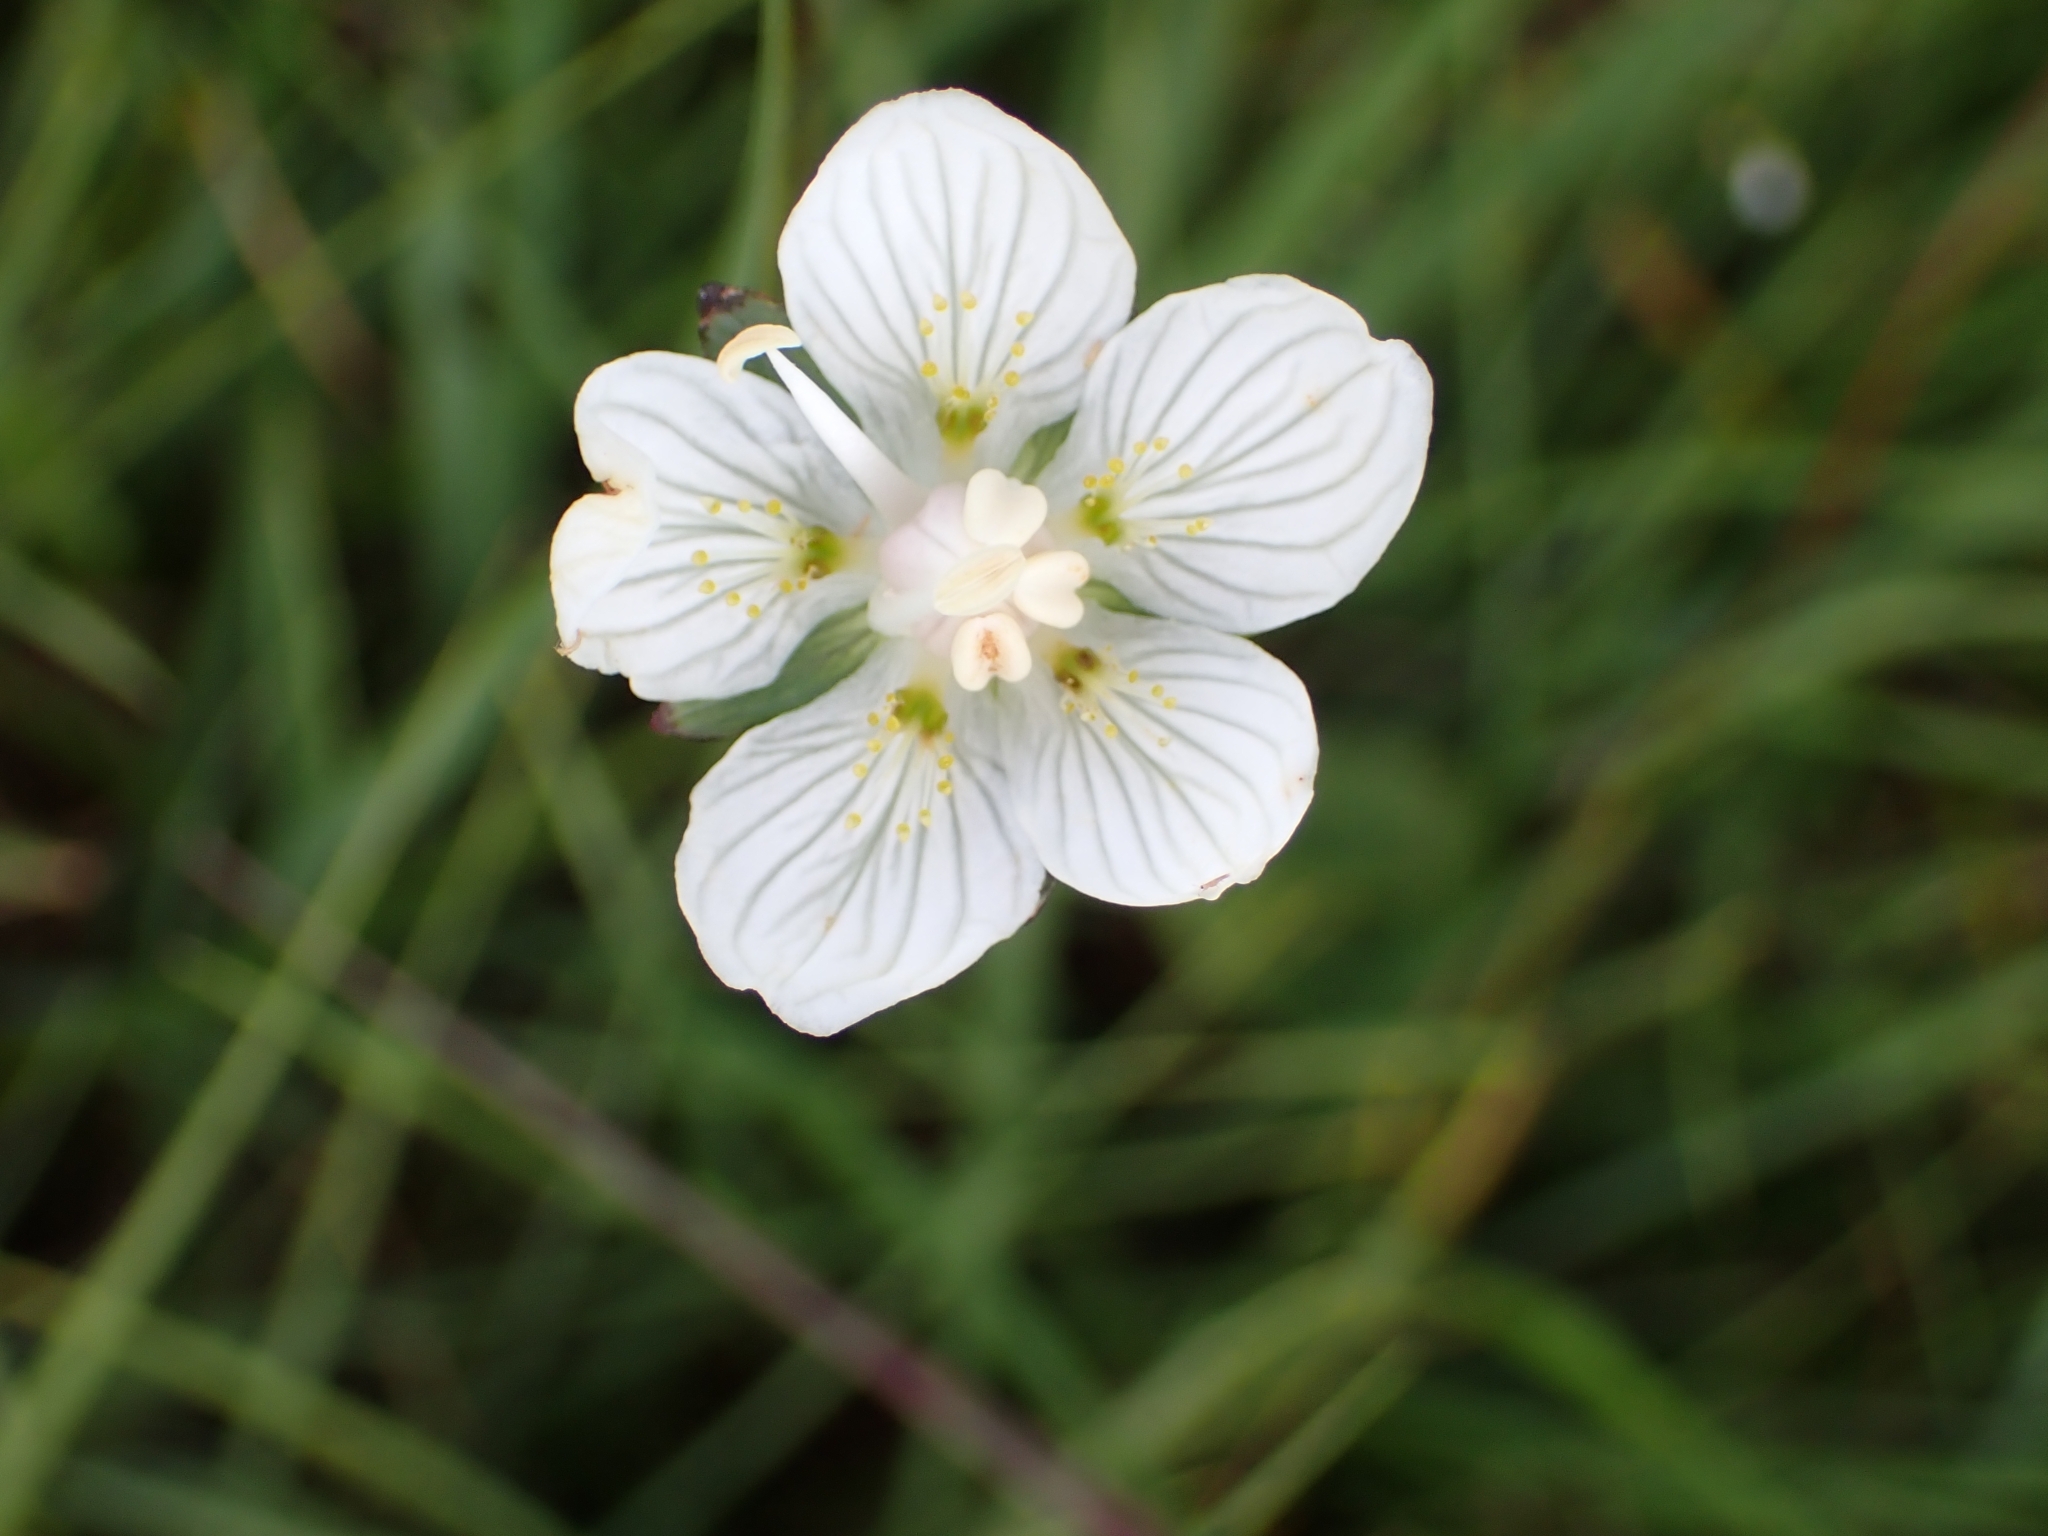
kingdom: Plantae
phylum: Tracheophyta
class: Magnoliopsida
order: Celastrales
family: Parnassiaceae
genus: Parnassia
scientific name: Parnassia palustris
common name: Grass-of-parnassus
